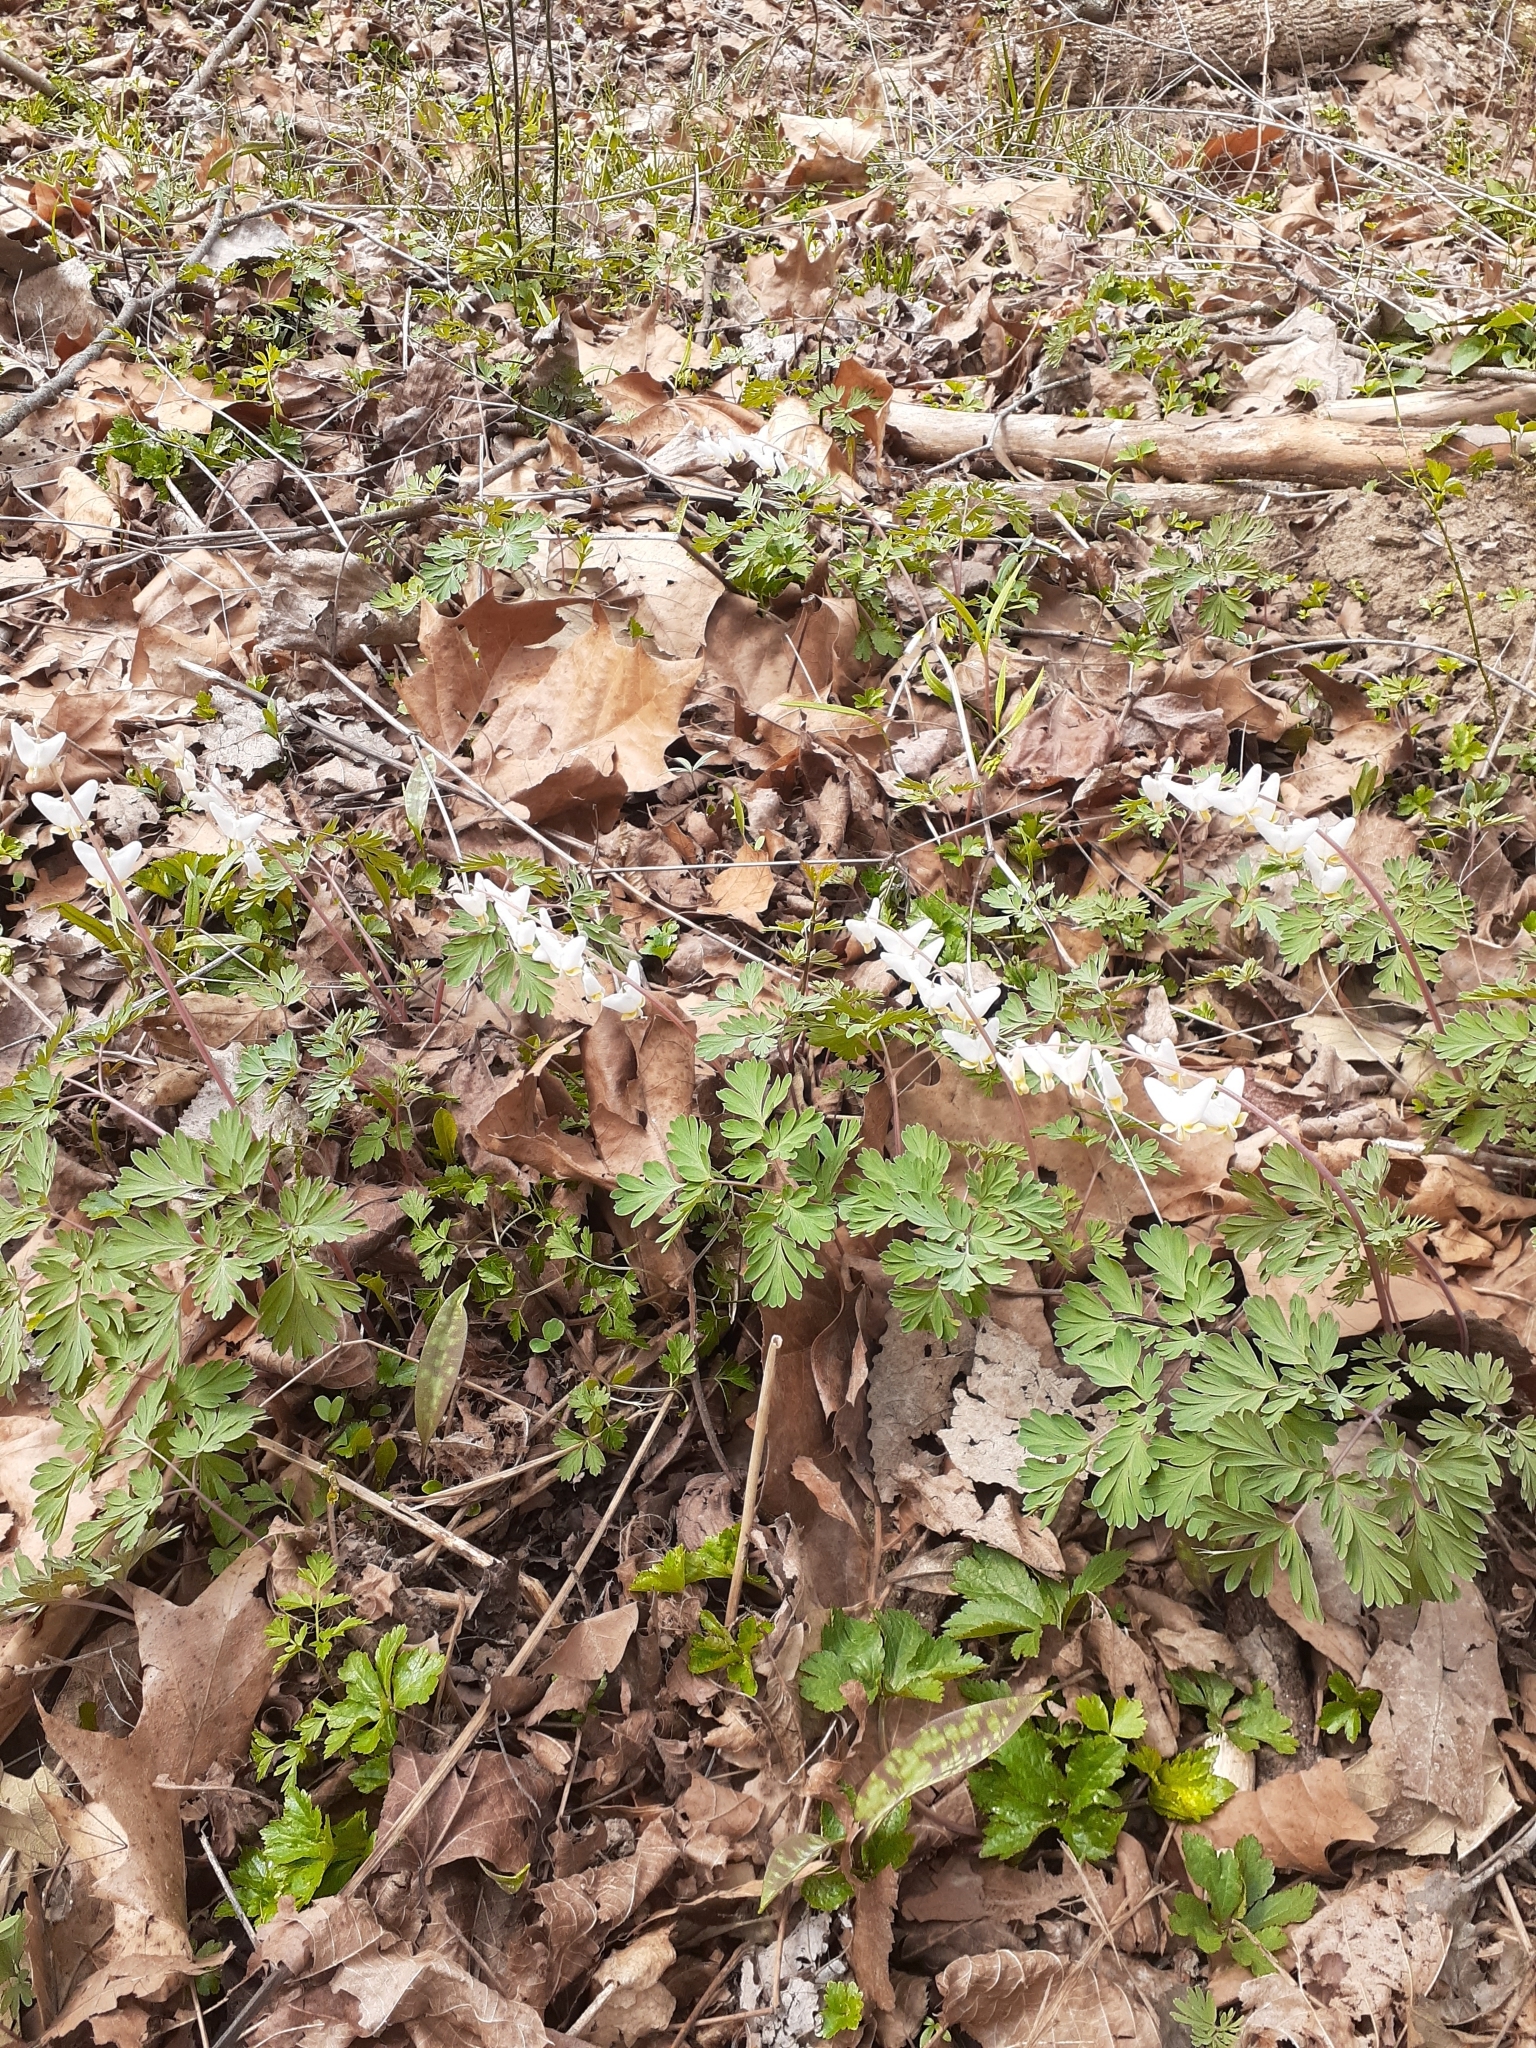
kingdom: Plantae
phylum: Tracheophyta
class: Magnoliopsida
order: Ranunculales
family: Papaveraceae
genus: Dicentra
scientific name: Dicentra cucullaria
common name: Dutchman's breeches
